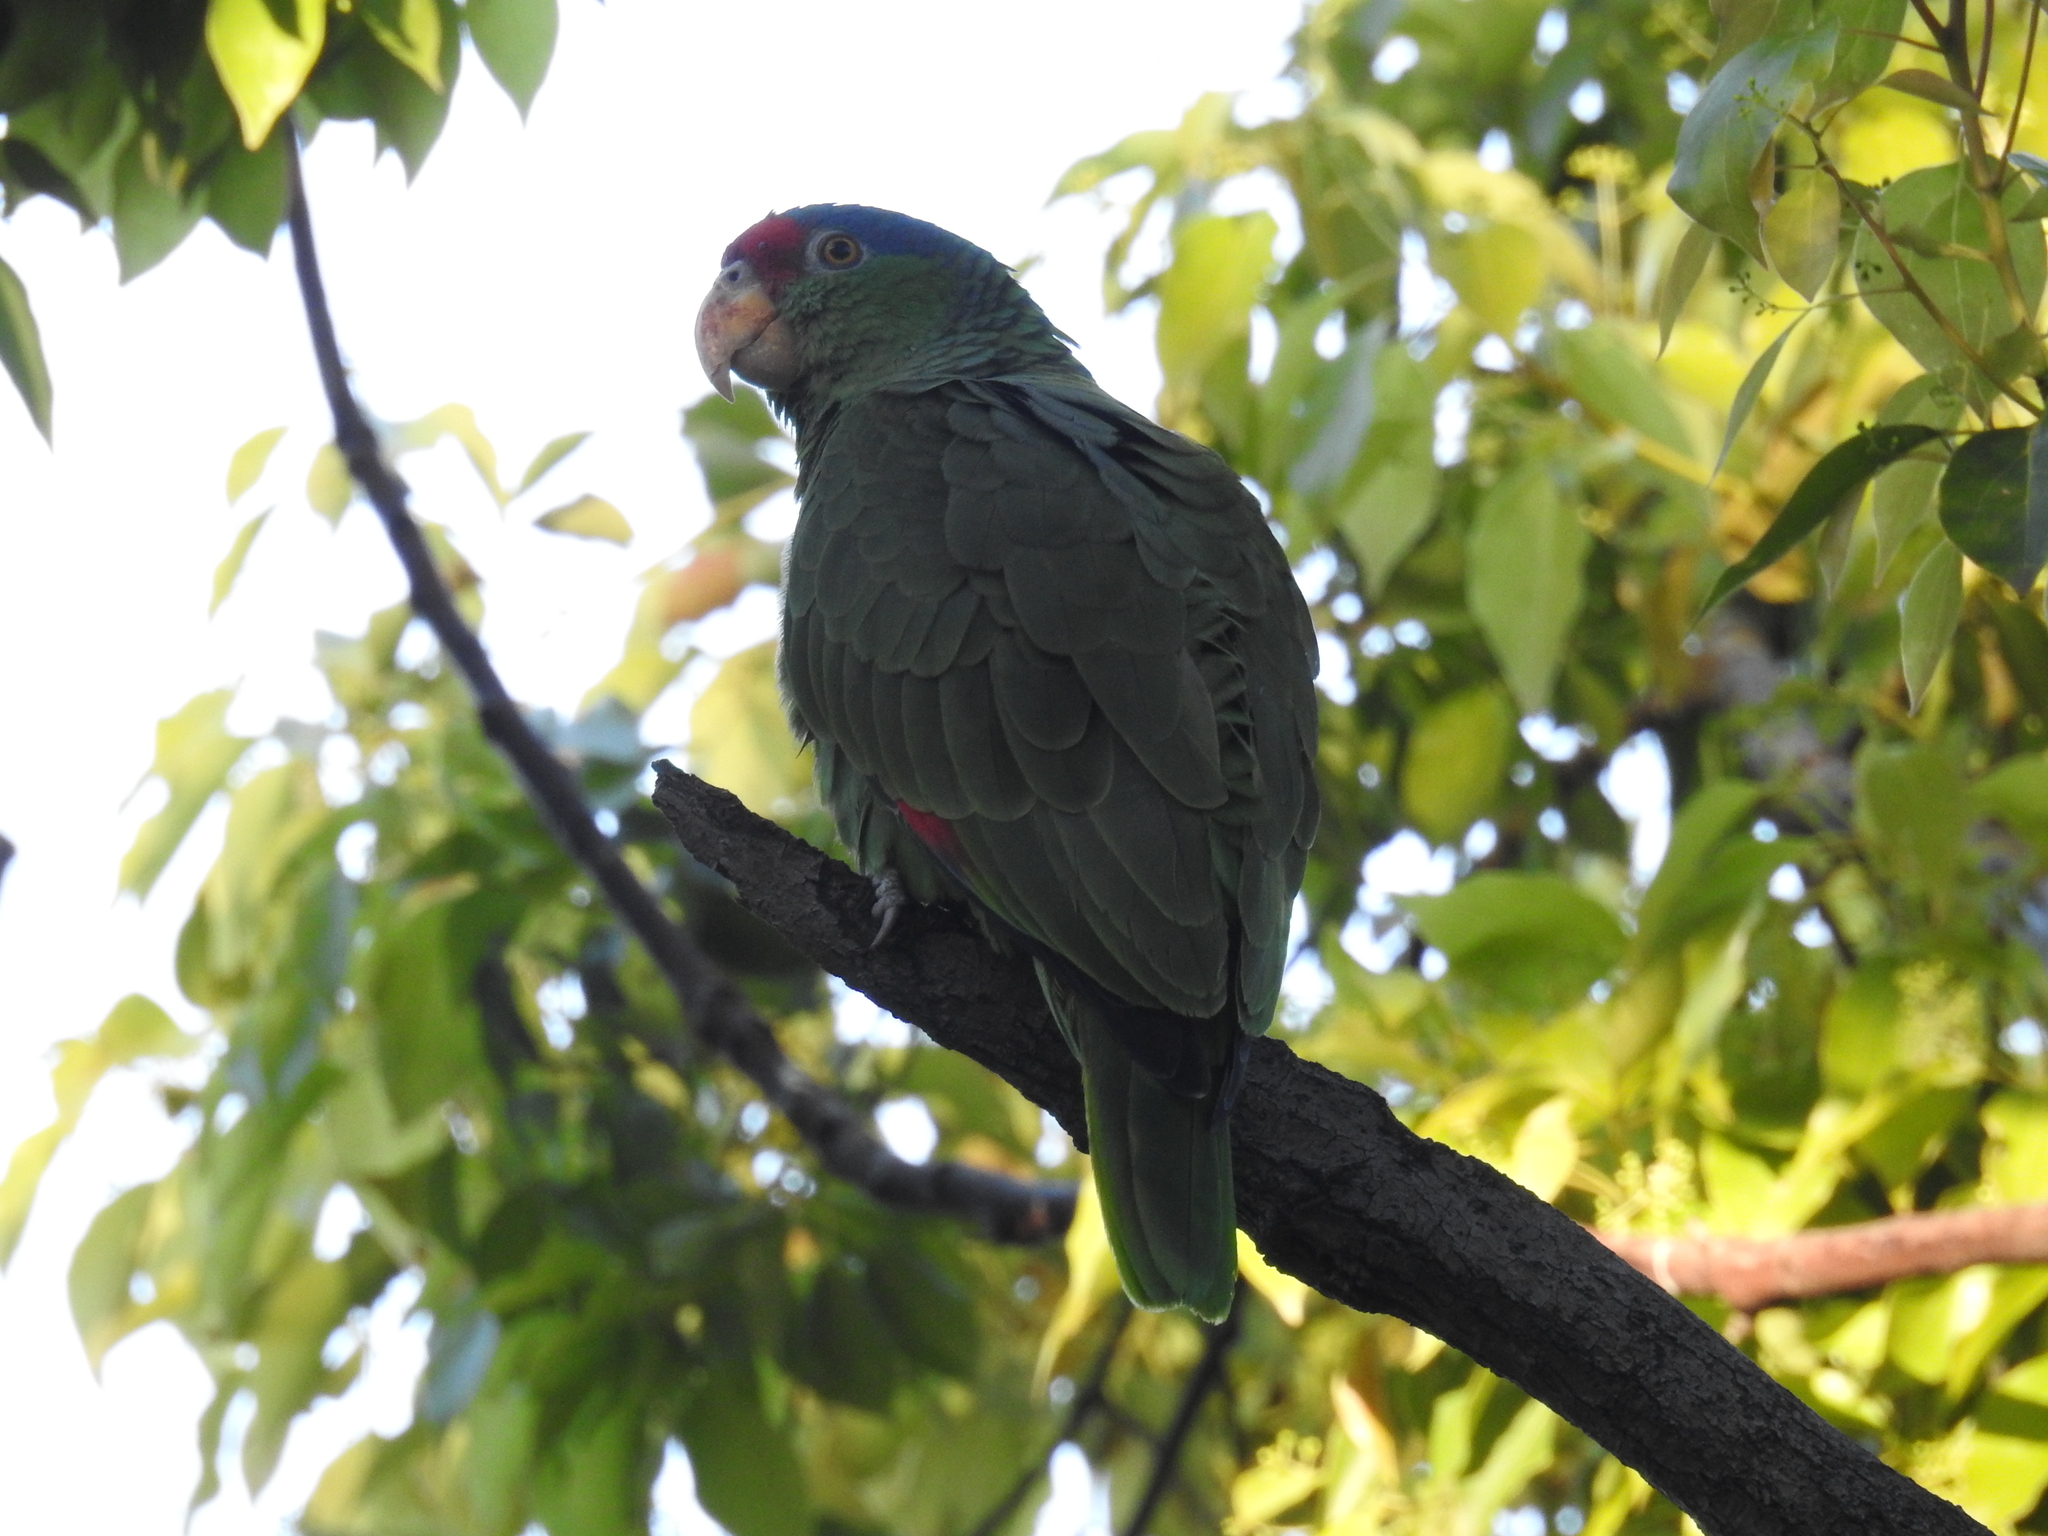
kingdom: Animalia
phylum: Chordata
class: Aves
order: Psittaciformes
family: Psittacidae
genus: Amazona
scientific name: Amazona viridigenalis
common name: Red-crowned amazon
